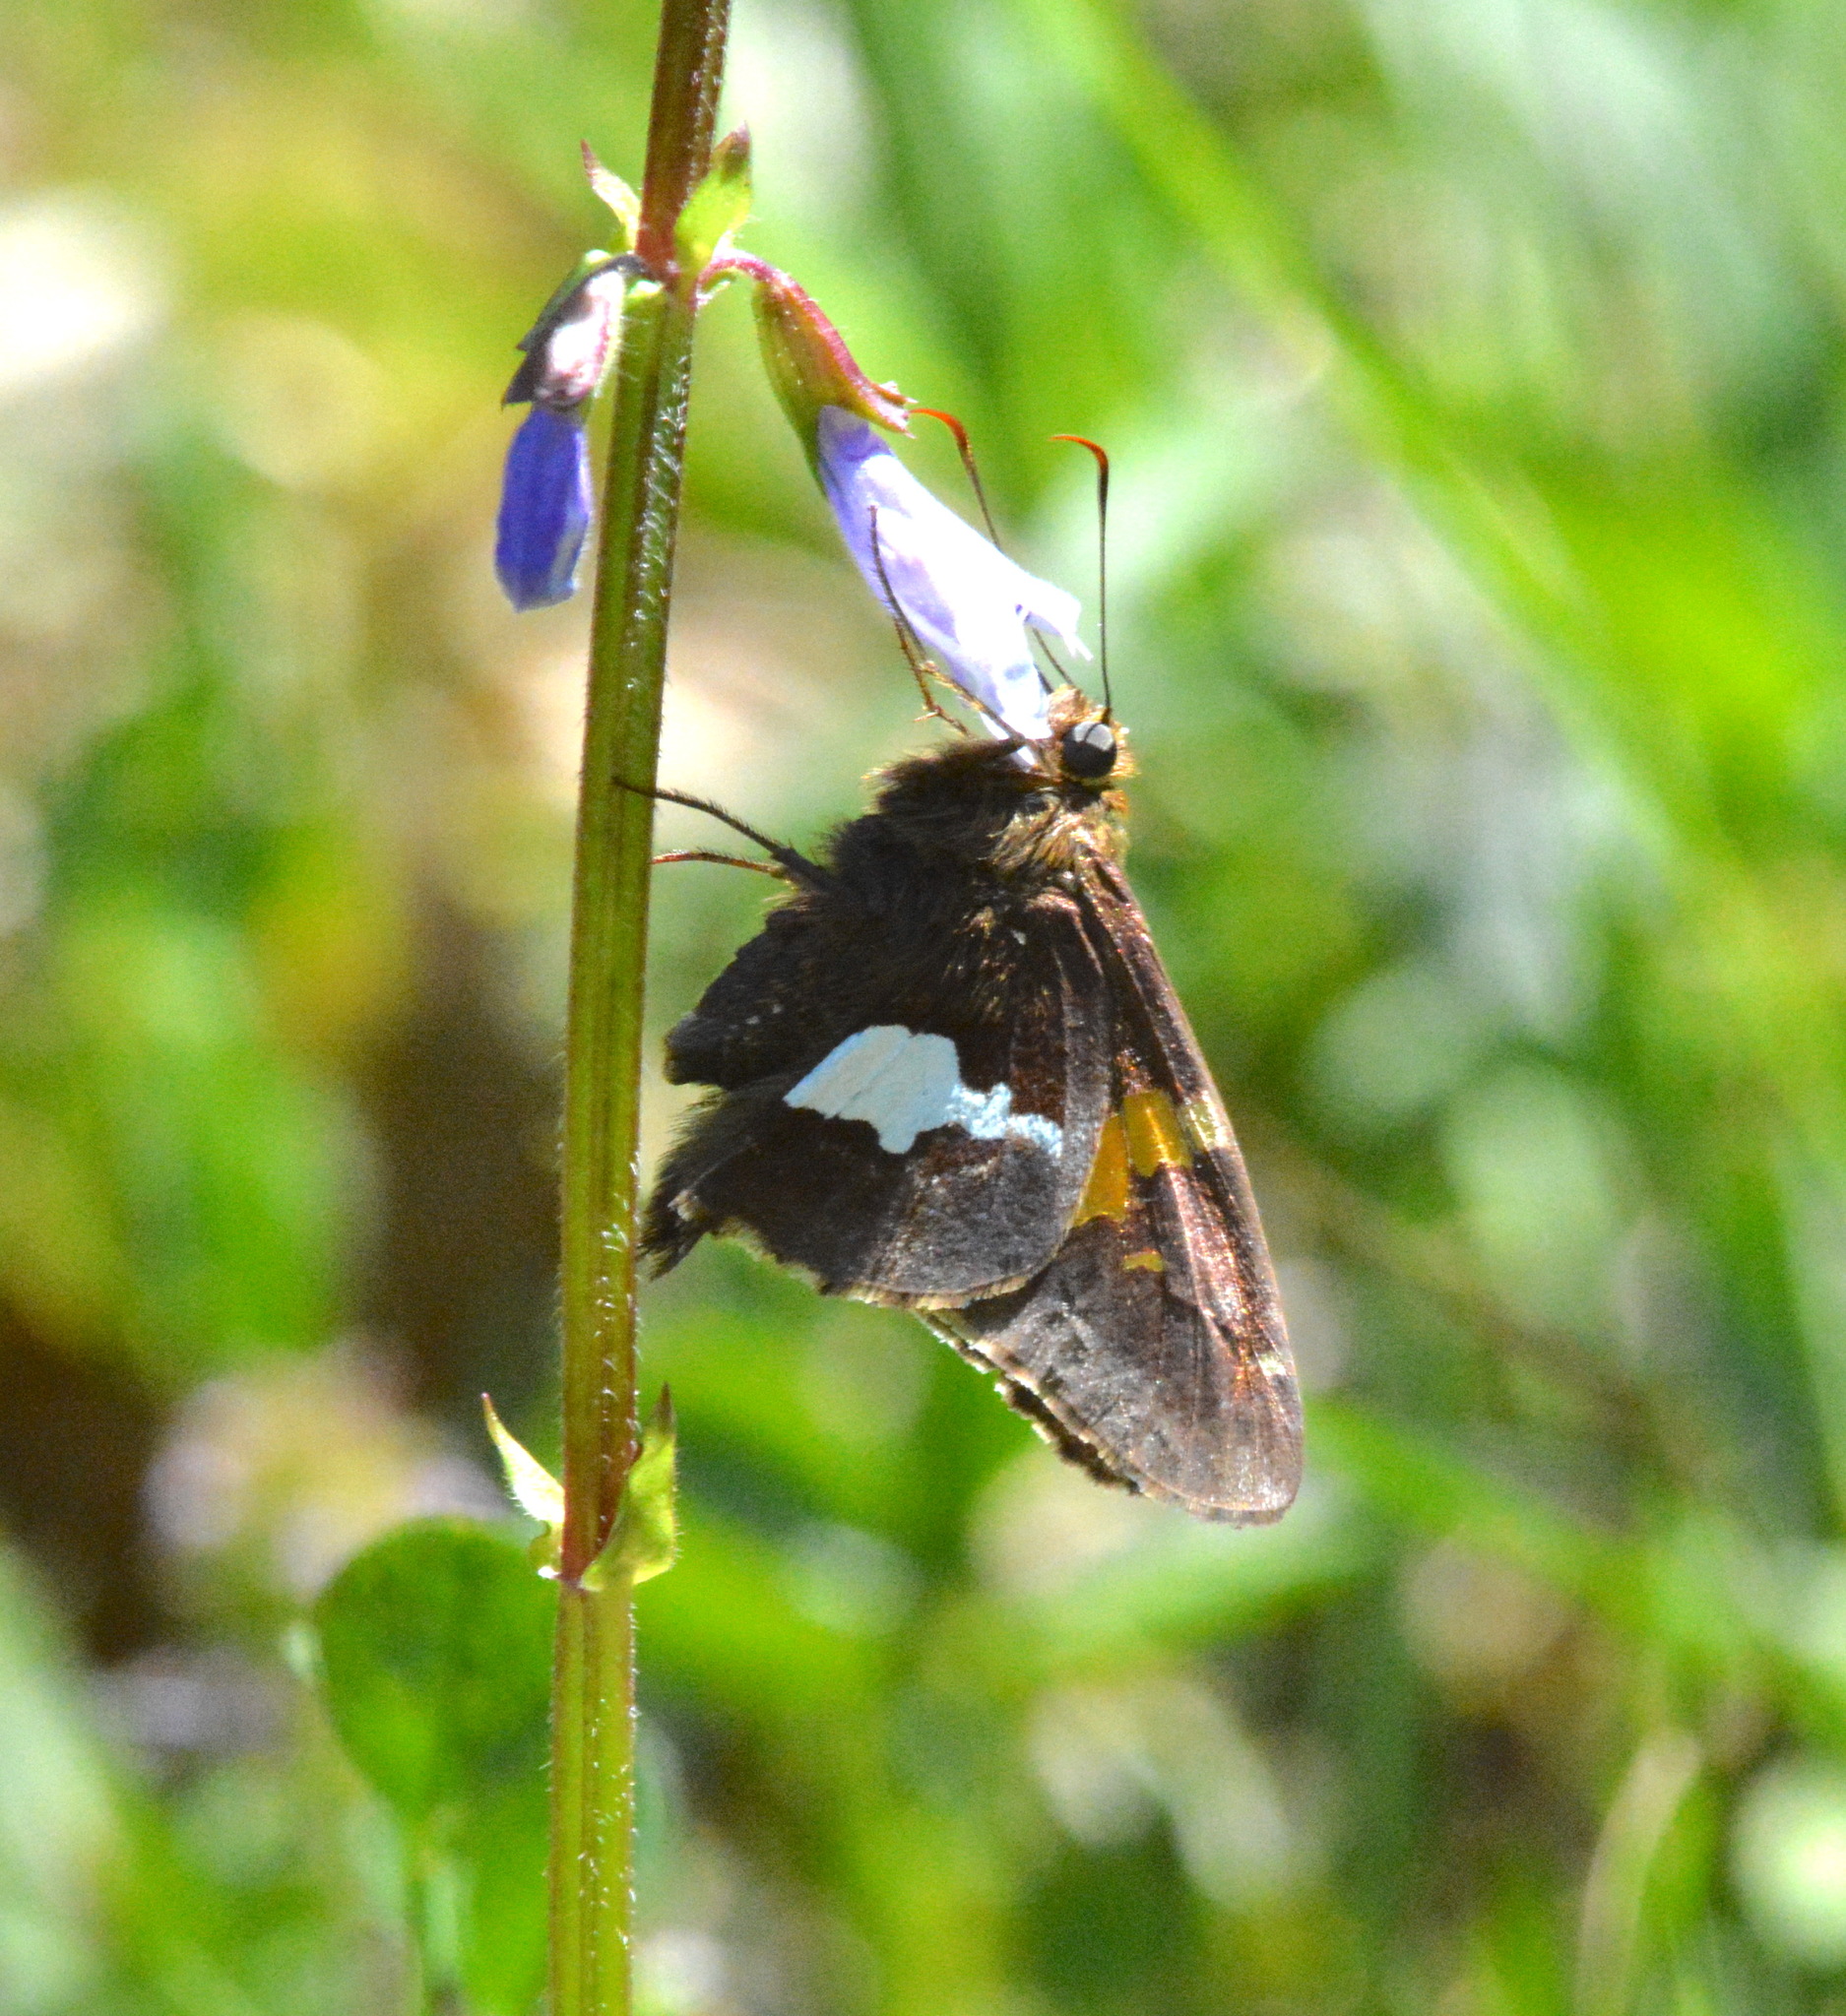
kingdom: Animalia
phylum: Arthropoda
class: Insecta
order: Lepidoptera
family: Hesperiidae
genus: Epargyreus
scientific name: Epargyreus clarus
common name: Silver-spotted skipper
